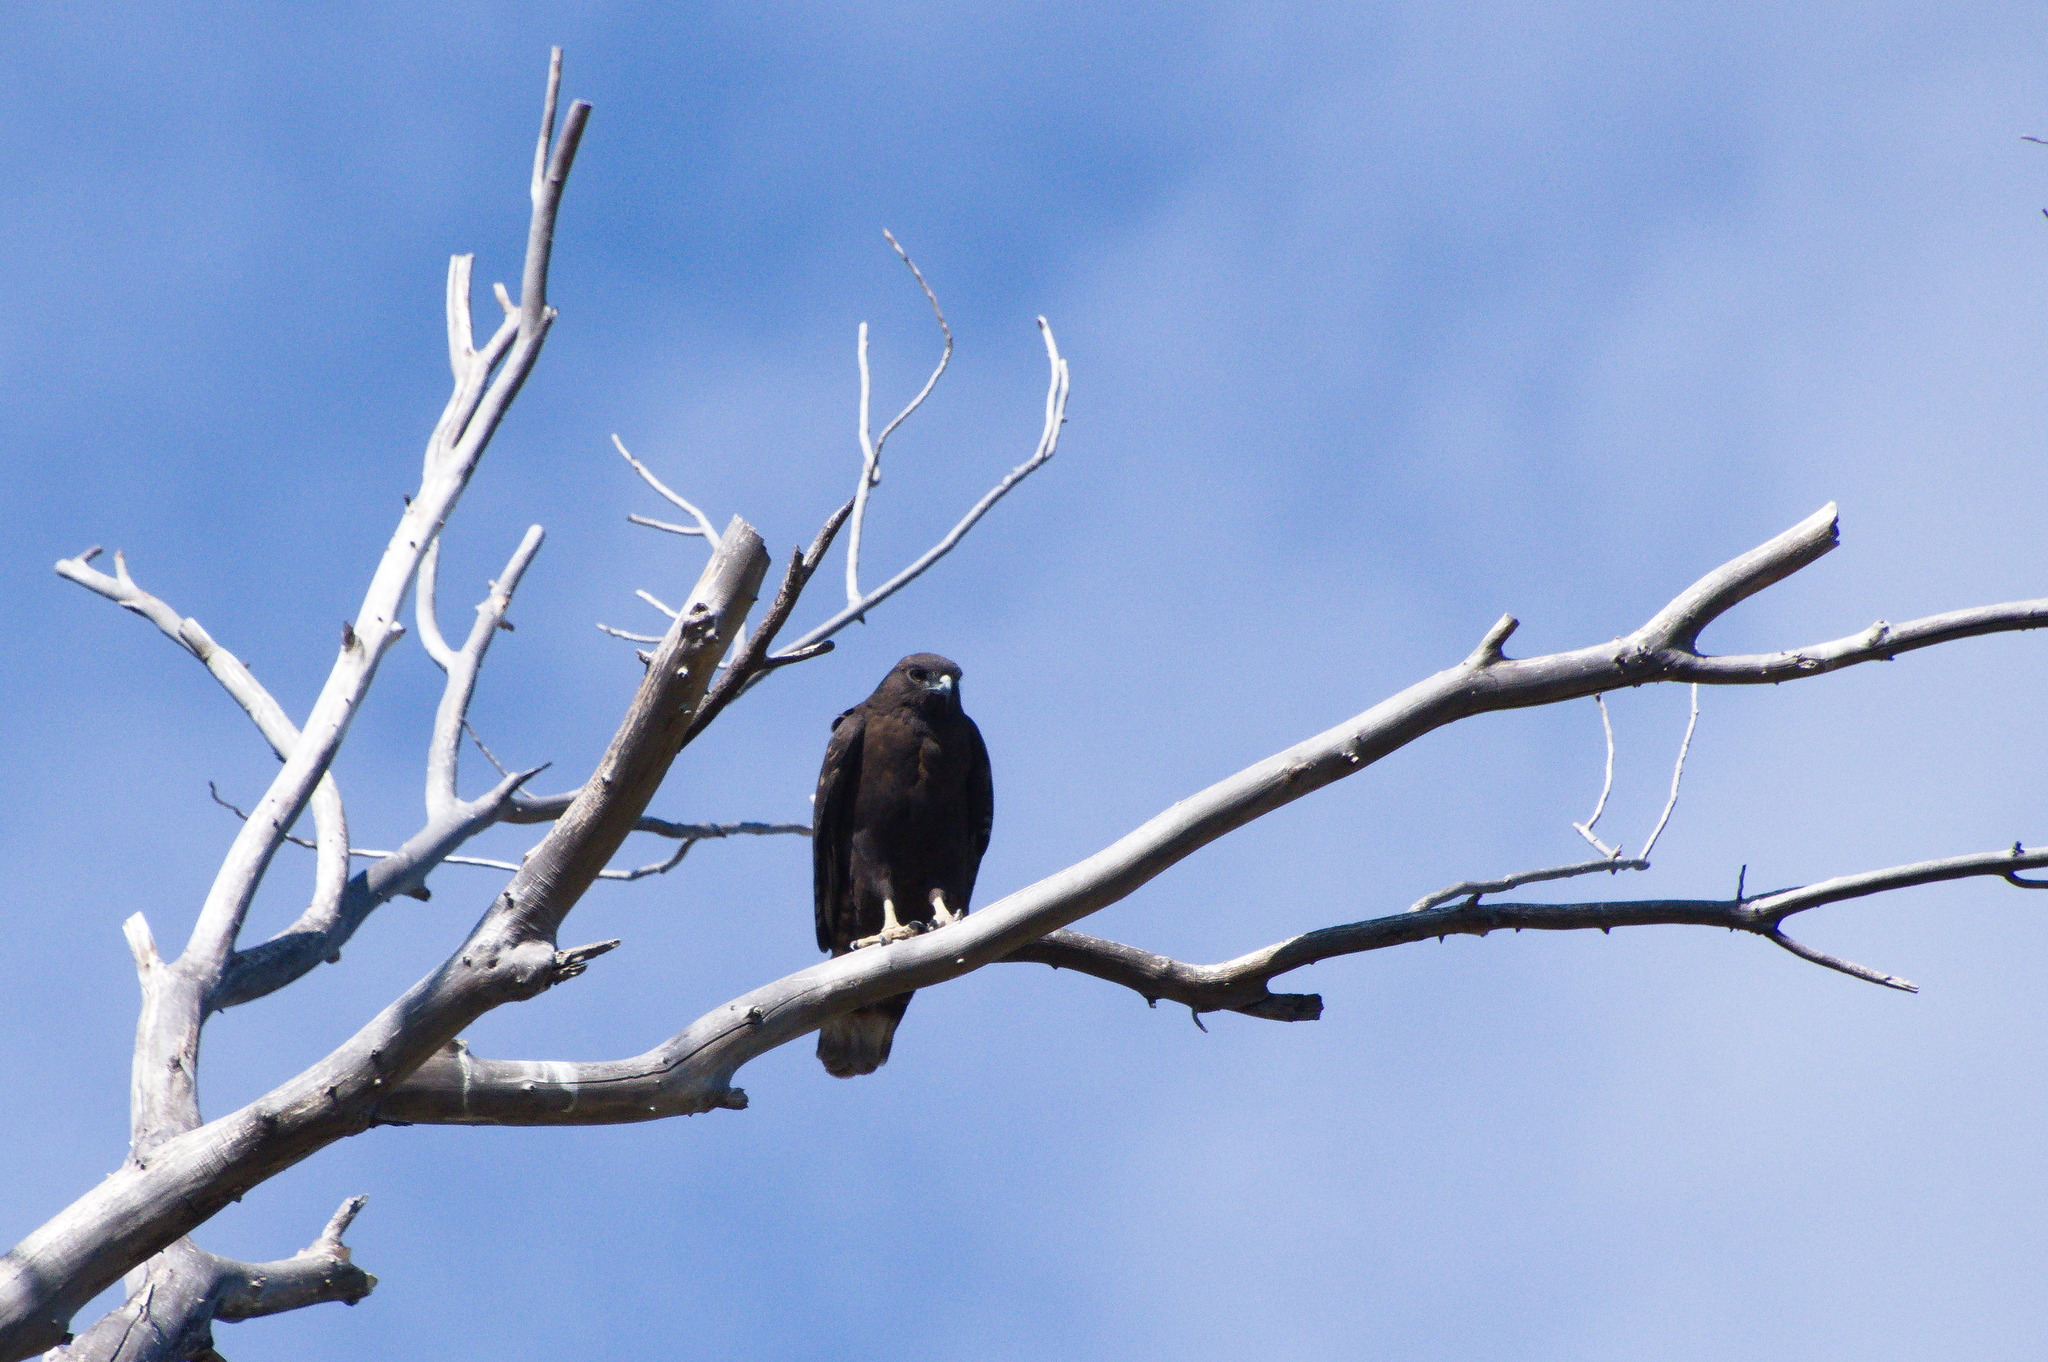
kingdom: Animalia
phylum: Chordata
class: Aves
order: Accipitriformes
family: Accipitridae
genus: Buteo
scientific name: Buteo jamaicensis
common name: Red-tailed hawk
